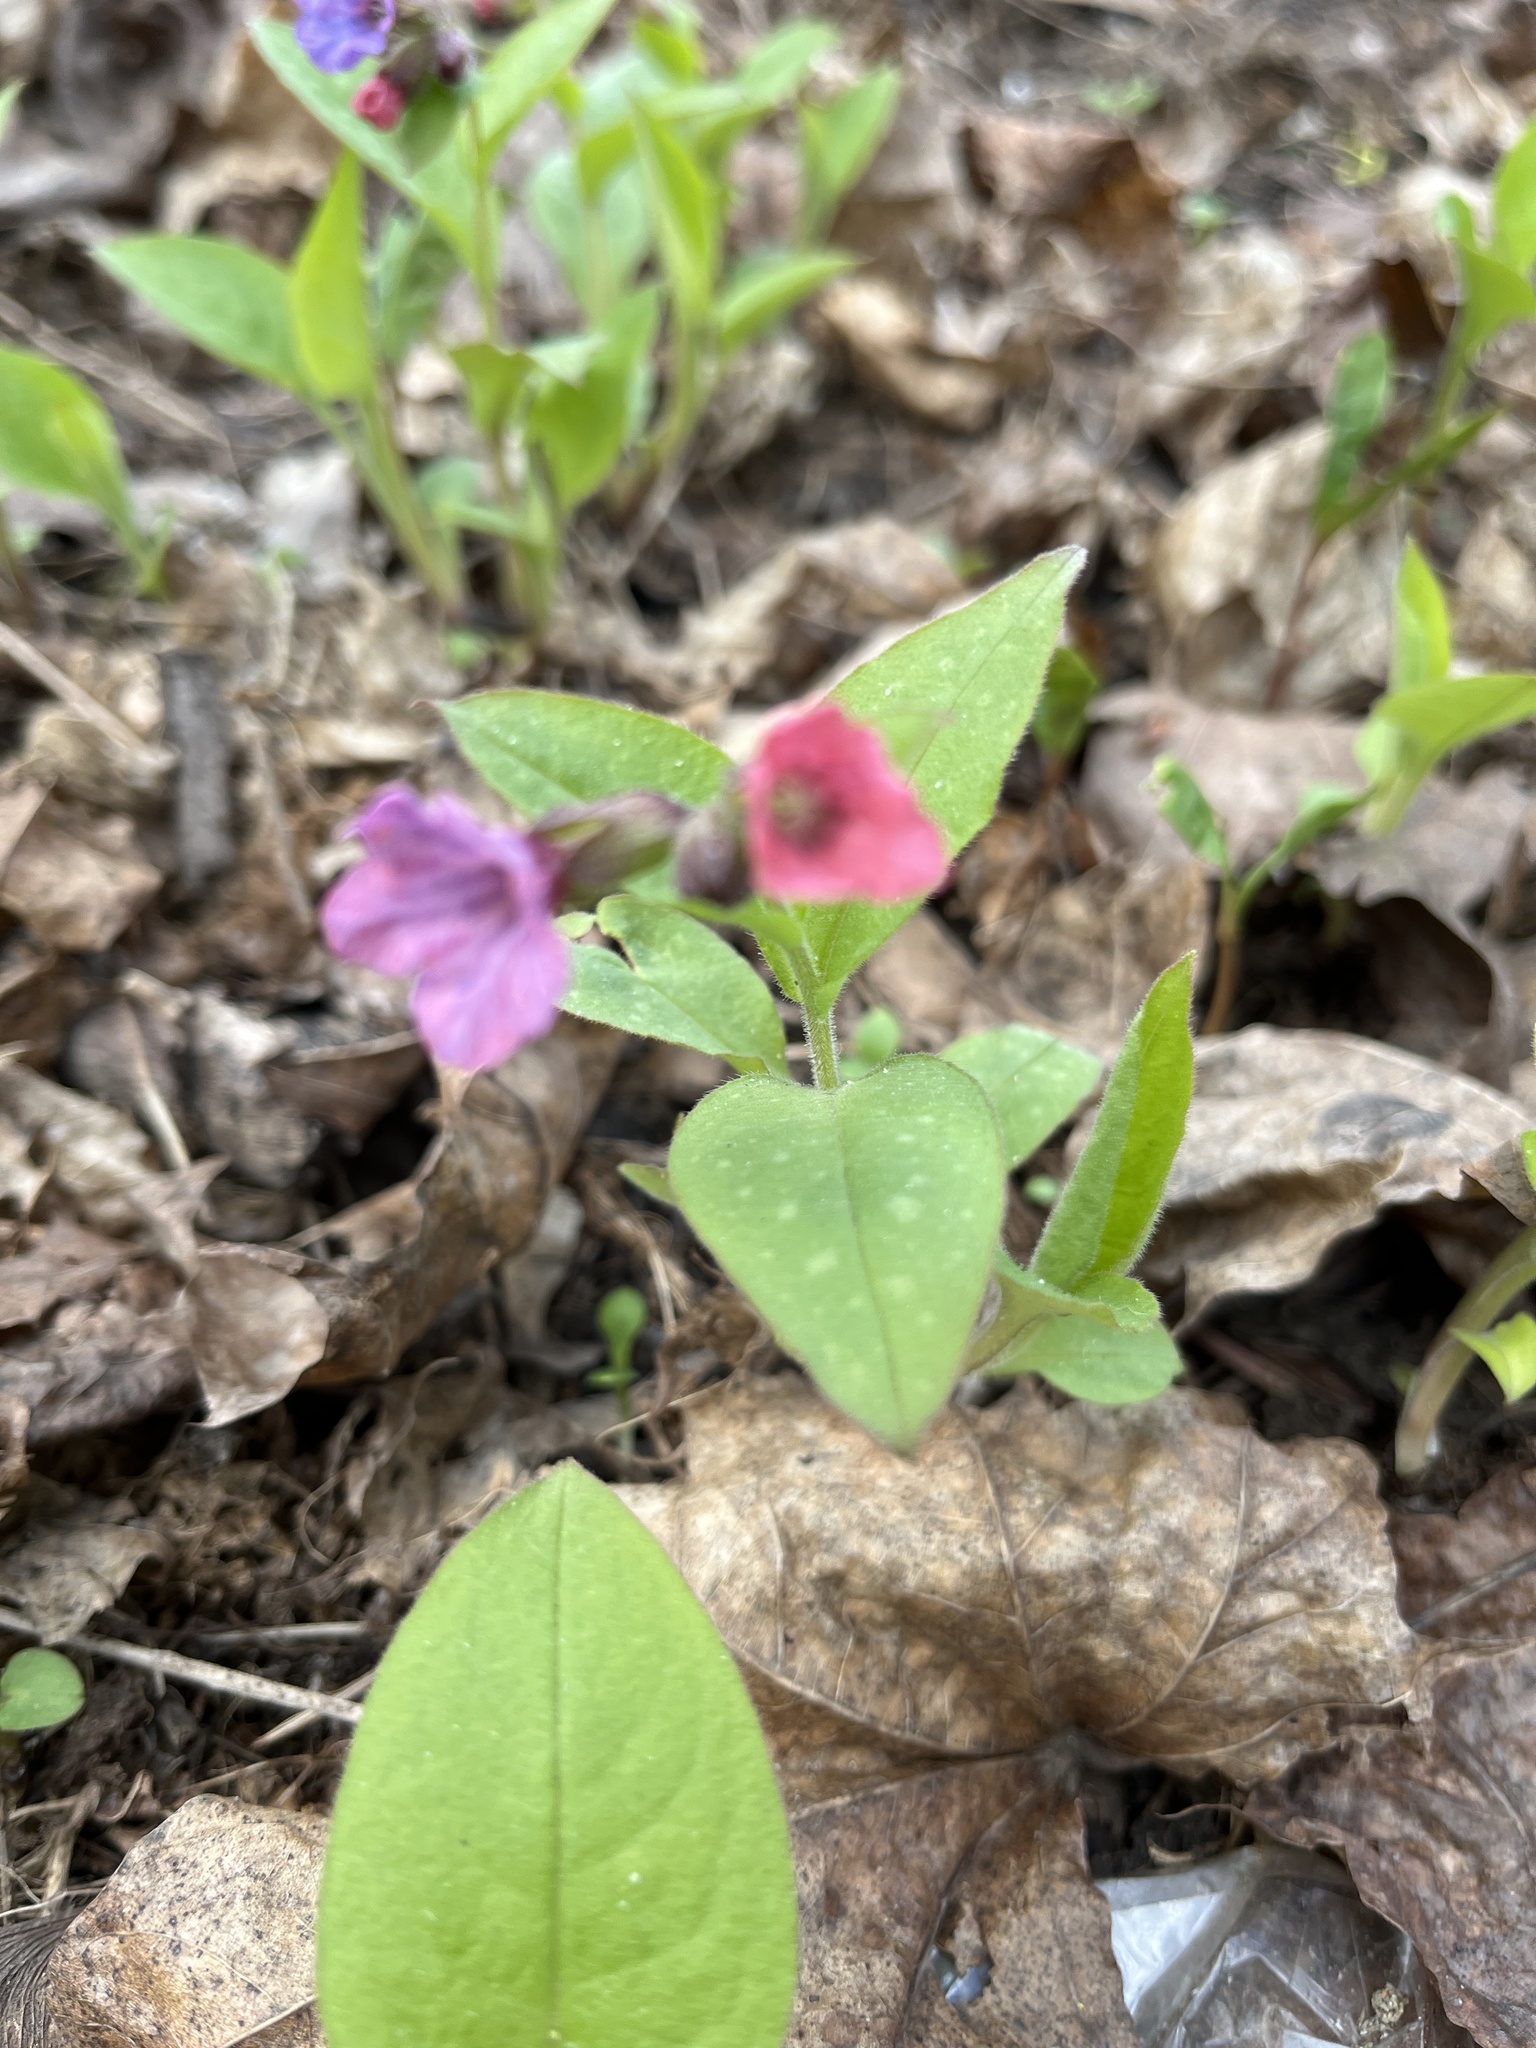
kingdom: Plantae
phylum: Tracheophyta
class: Magnoliopsida
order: Boraginales
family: Boraginaceae
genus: Pulmonaria
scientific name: Pulmonaria obscura
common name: Suffolk lungwort
